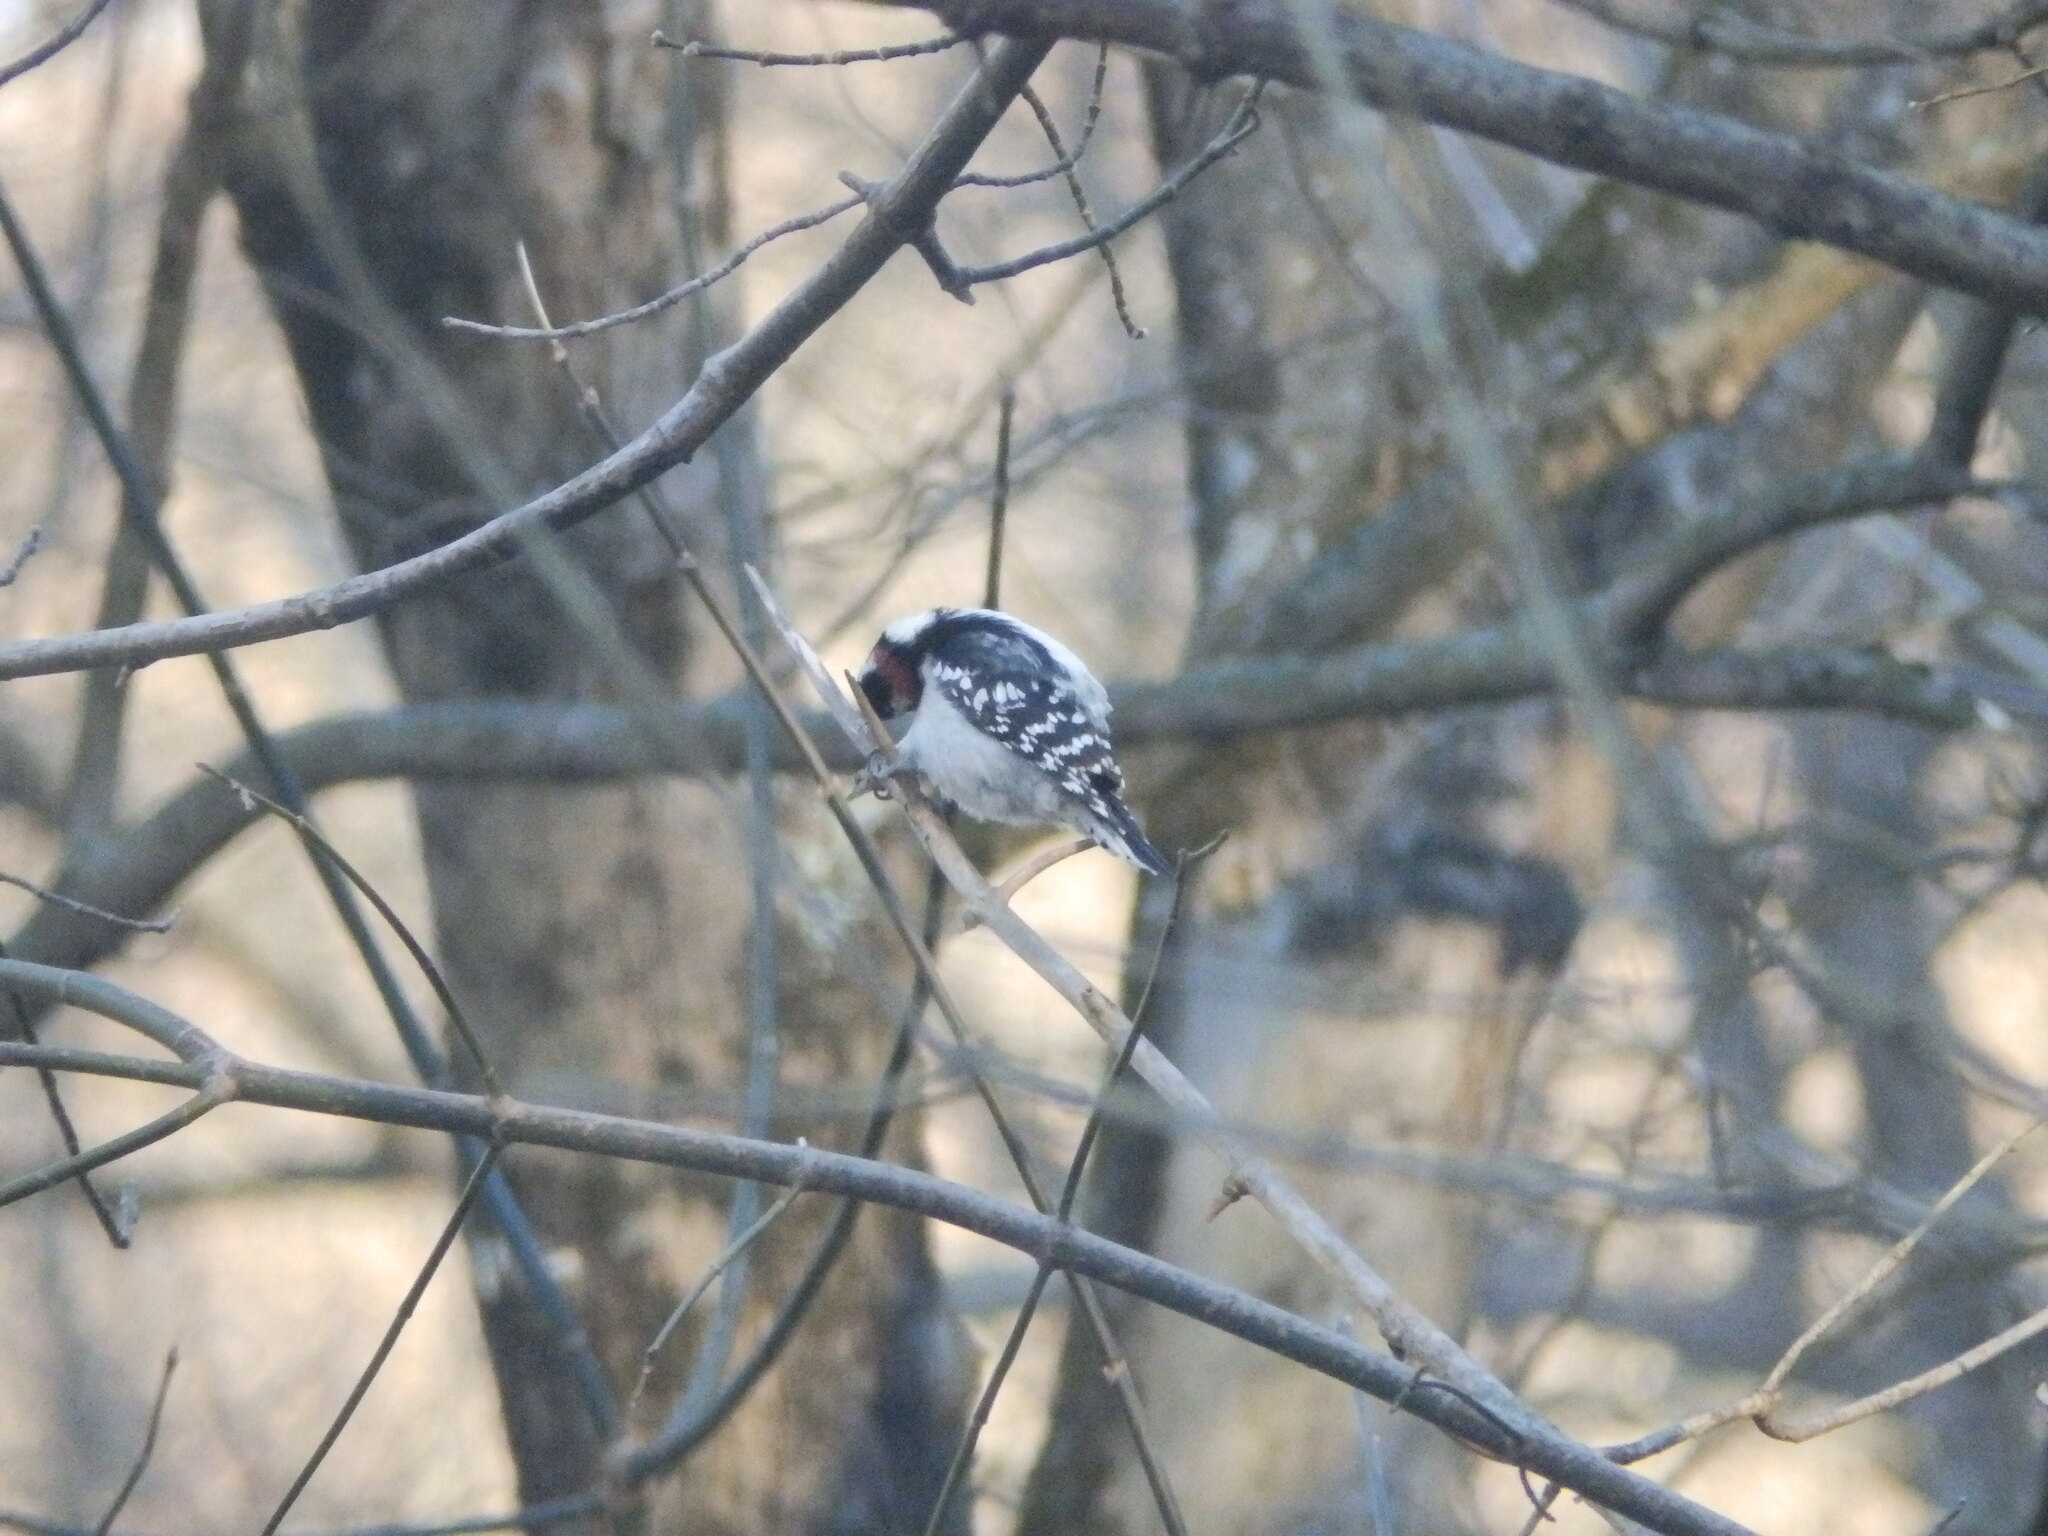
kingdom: Animalia
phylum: Chordata
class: Aves
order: Piciformes
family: Picidae
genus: Dryobates
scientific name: Dryobates pubescens
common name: Downy woodpecker
